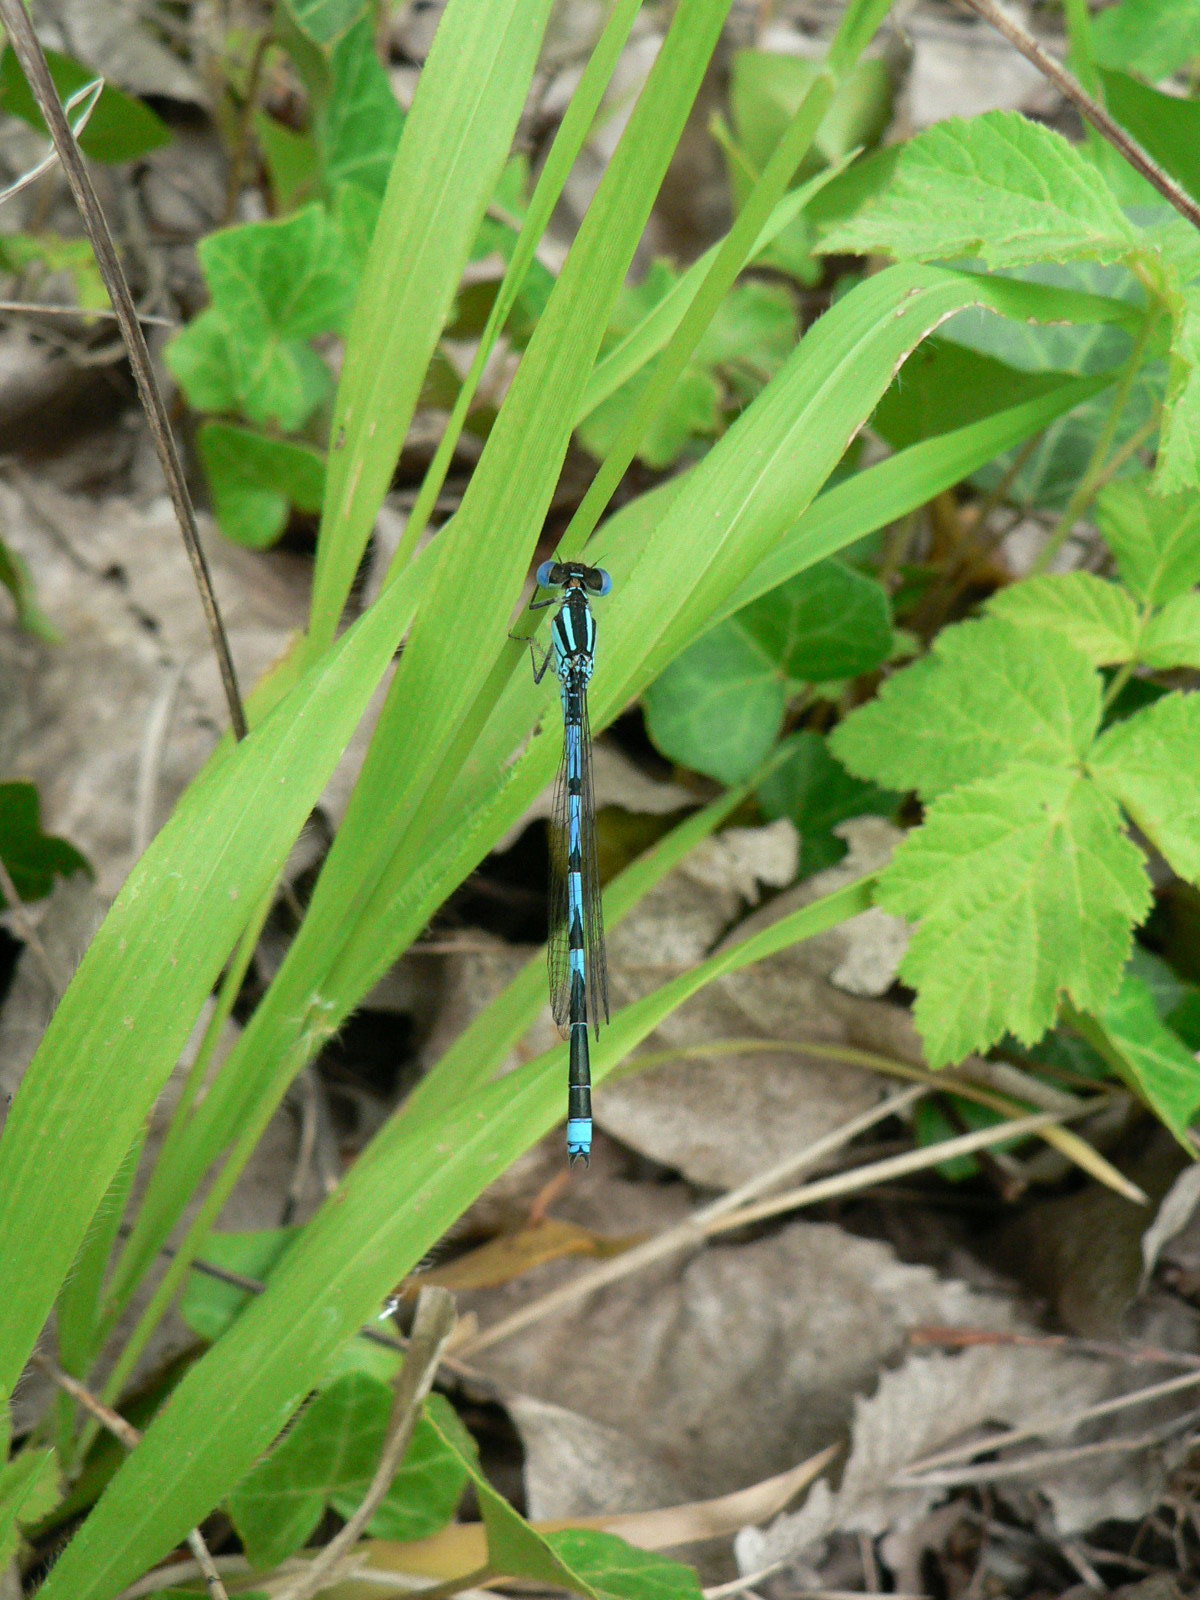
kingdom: Animalia
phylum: Arthropoda
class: Insecta
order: Odonata
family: Coenagrionidae
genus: Erythromma
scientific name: Erythromma lindenii
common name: Blue-eye
